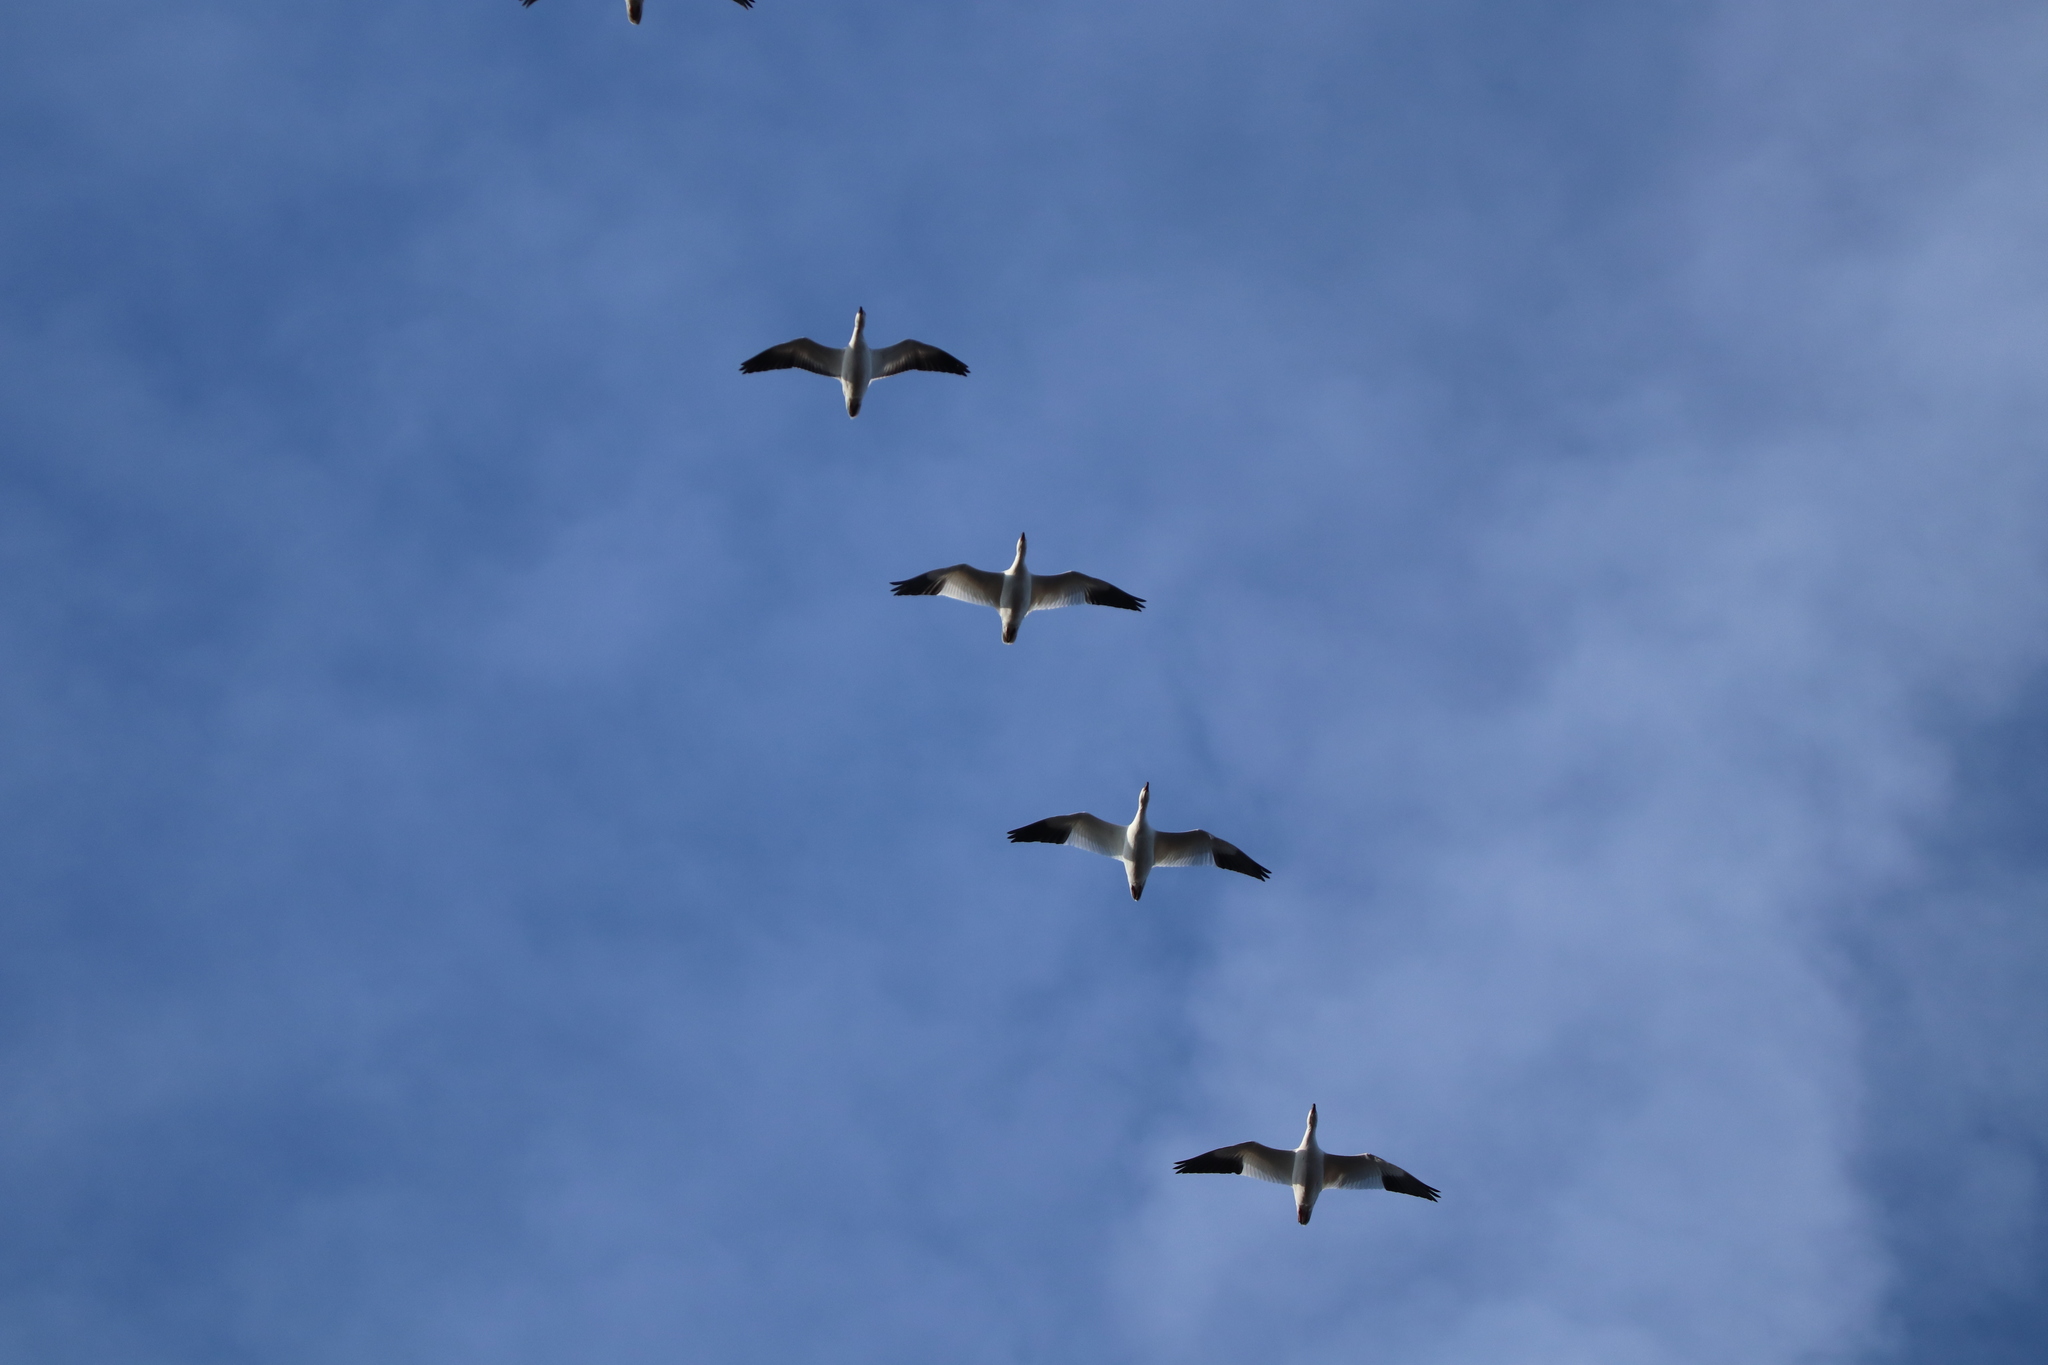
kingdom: Animalia
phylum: Chordata
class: Aves
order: Anseriformes
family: Anatidae
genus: Anser
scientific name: Anser caerulescens
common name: Snow goose
